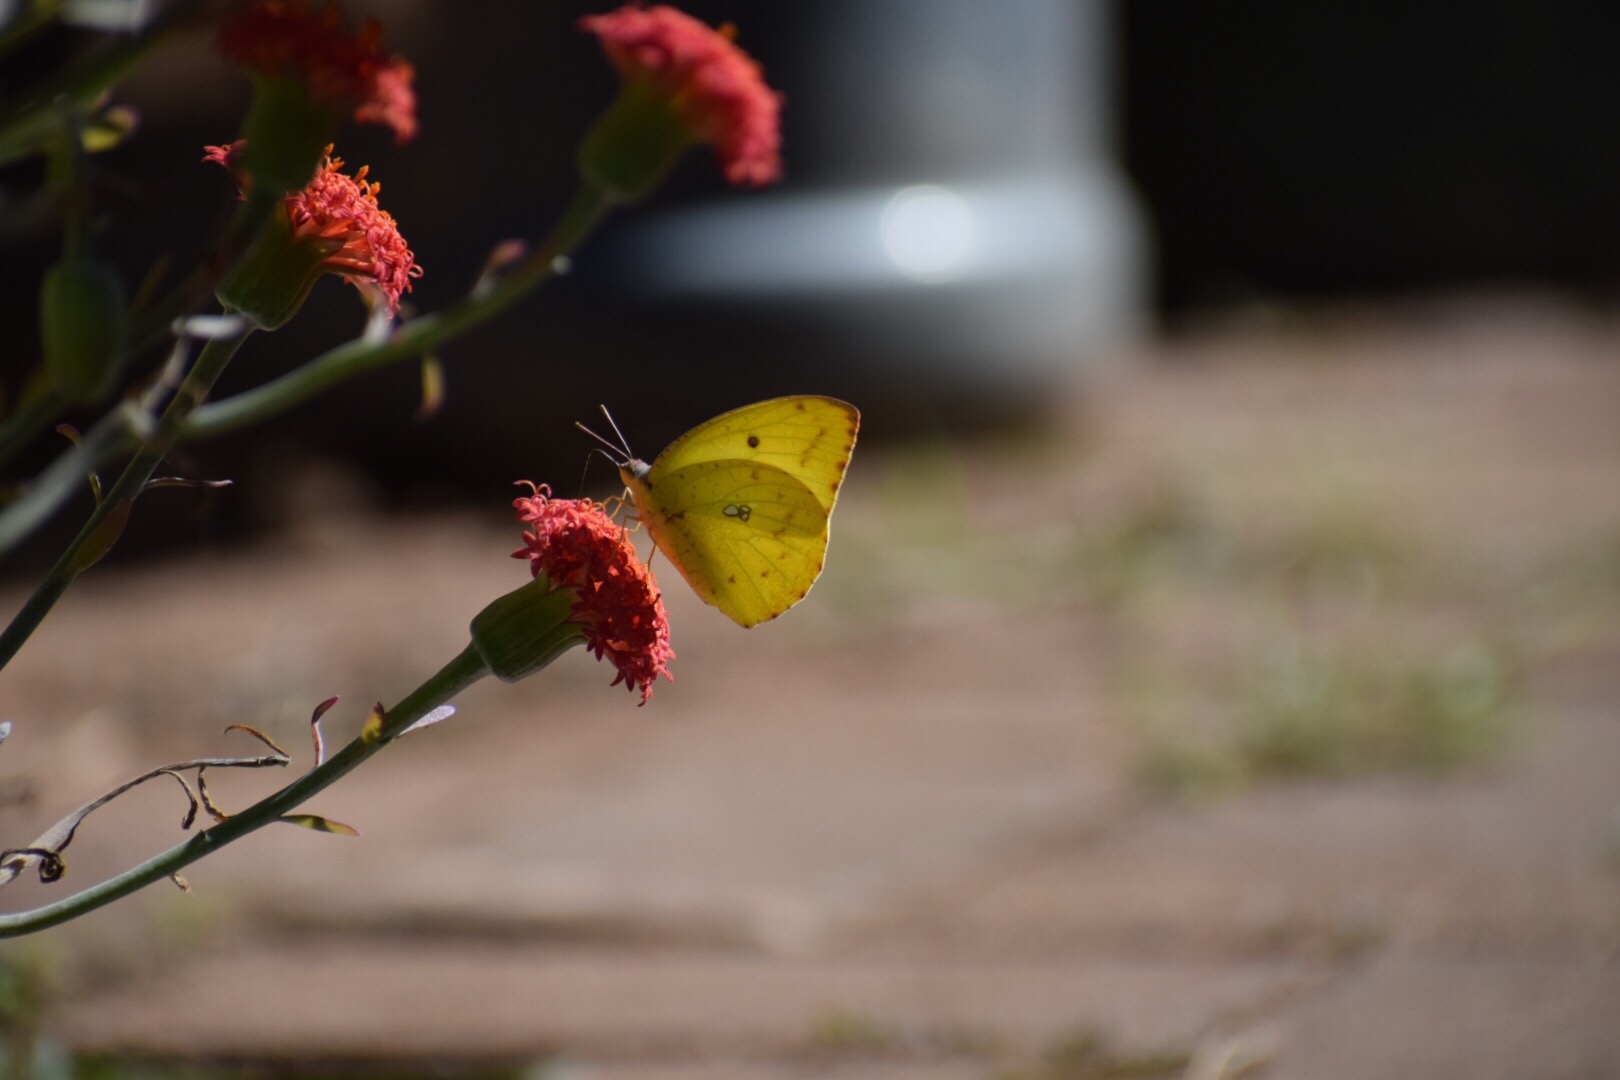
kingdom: Animalia
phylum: Arthropoda
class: Insecta
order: Lepidoptera
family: Pieridae
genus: Catopsilia
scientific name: Catopsilia florella
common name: African migrant
